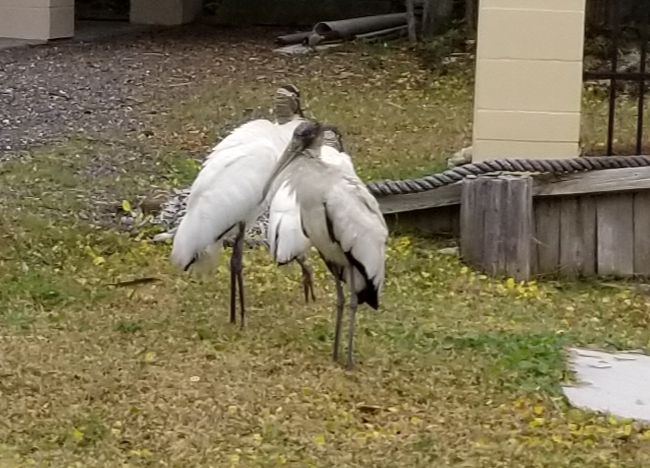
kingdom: Animalia
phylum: Chordata
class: Aves
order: Ciconiiformes
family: Ciconiidae
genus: Mycteria
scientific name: Mycteria americana
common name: Wood stork
